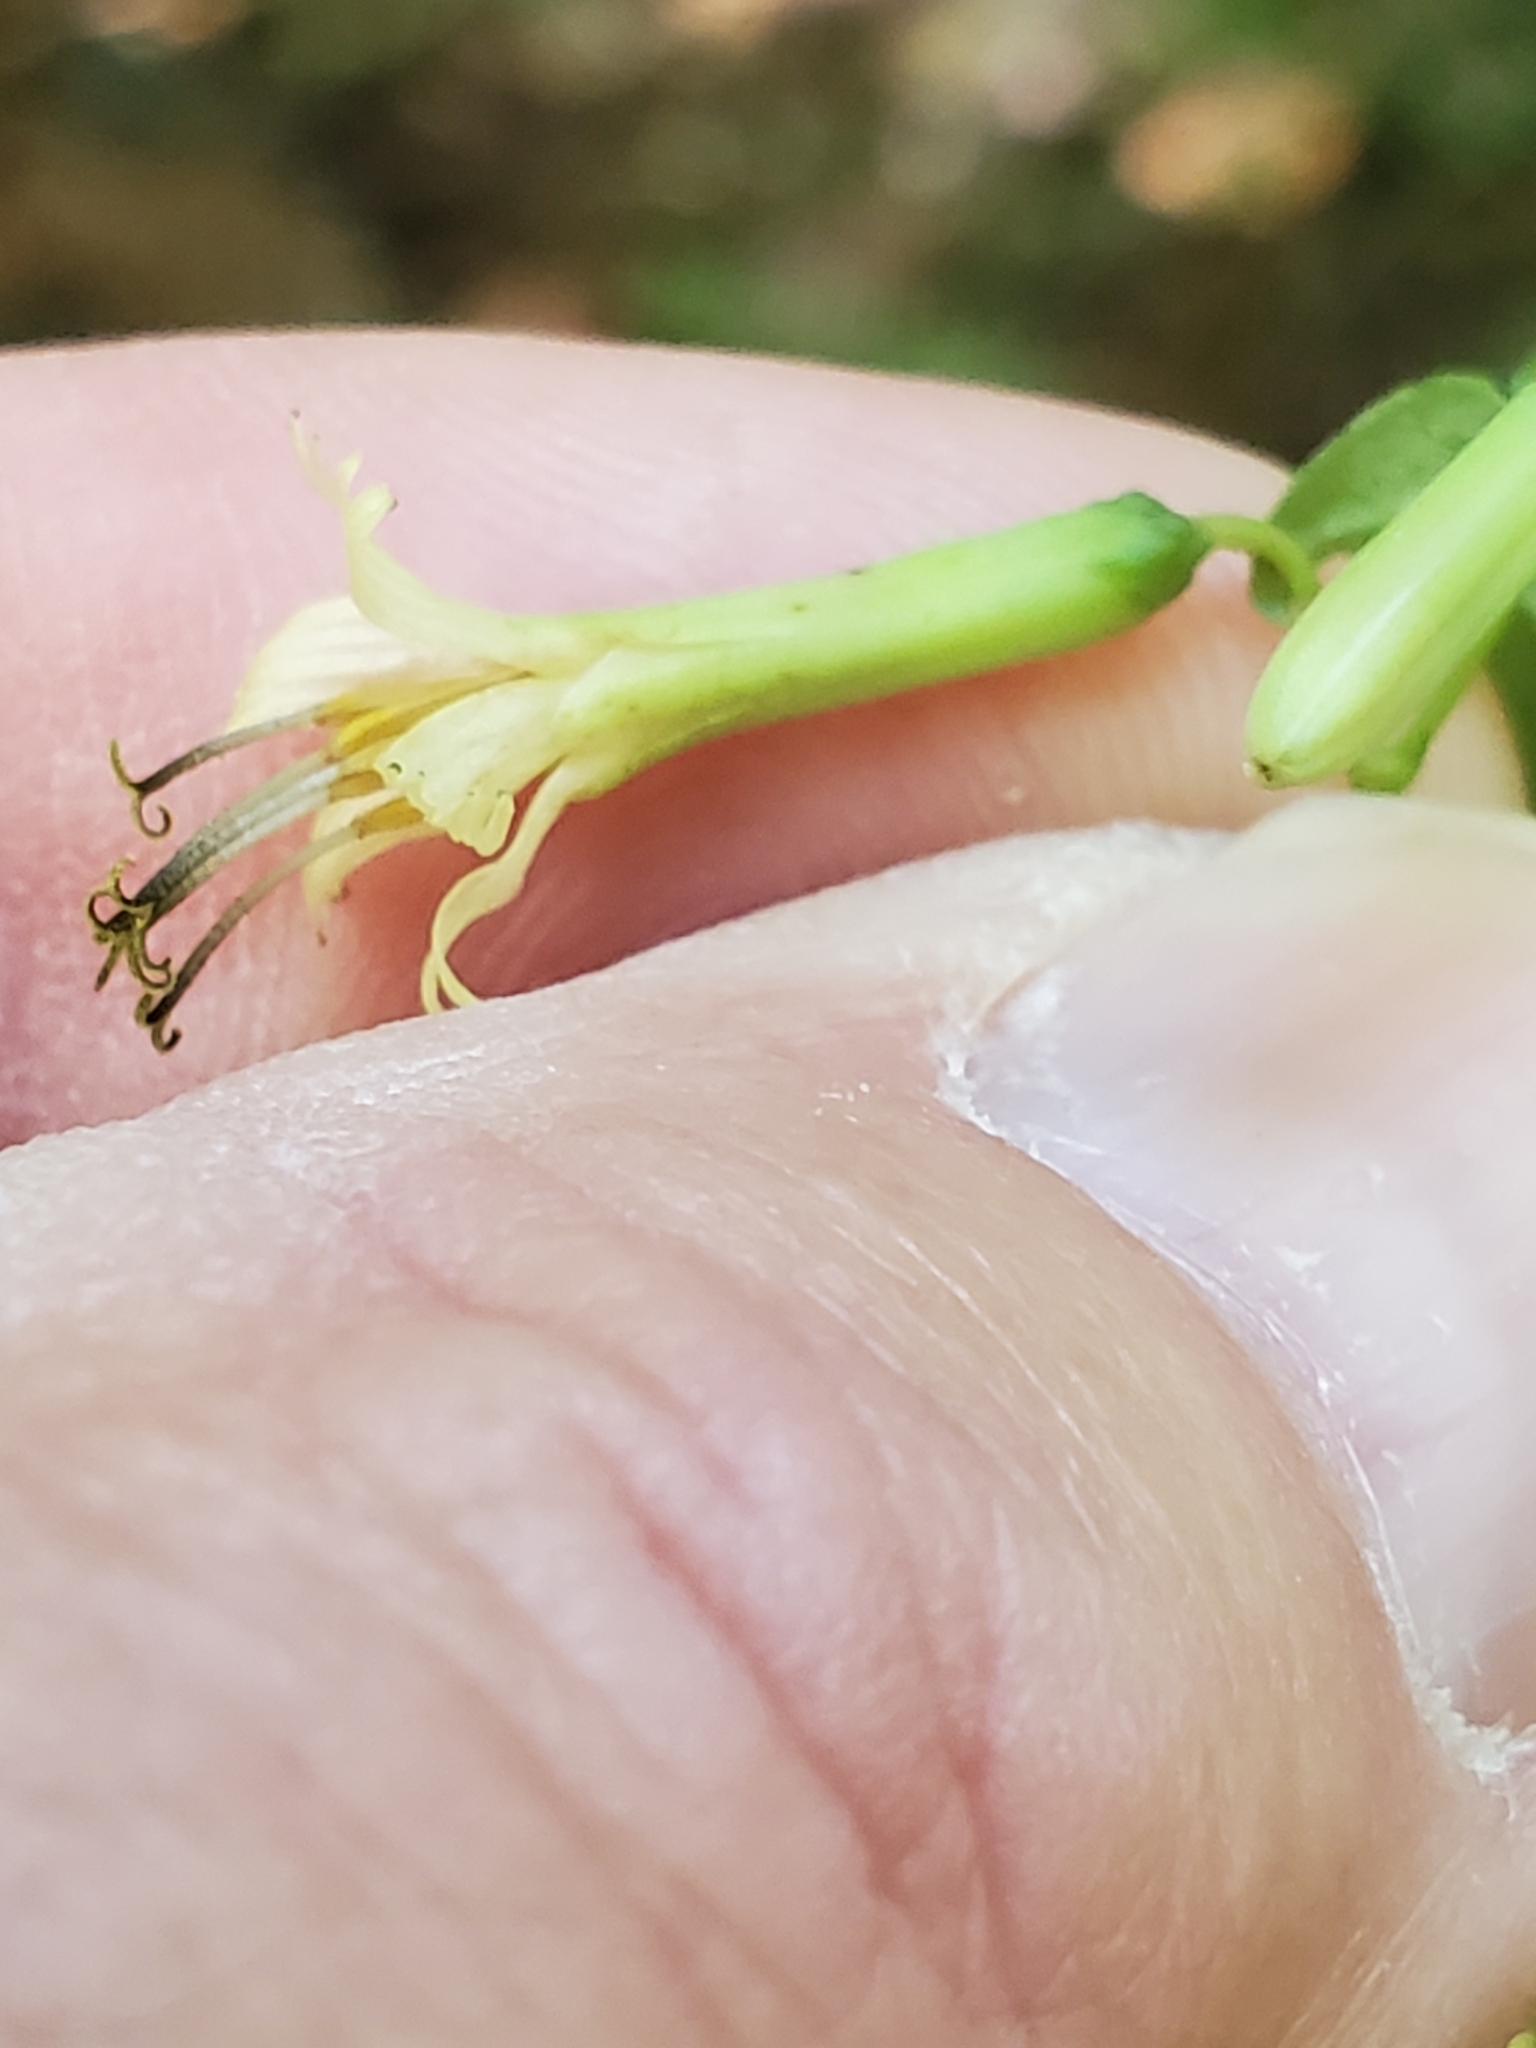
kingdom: Plantae
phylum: Tracheophyta
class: Magnoliopsida
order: Asterales
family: Asteraceae
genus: Nabalus
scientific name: Nabalus altissima
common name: Tall rattlesnakeroot
